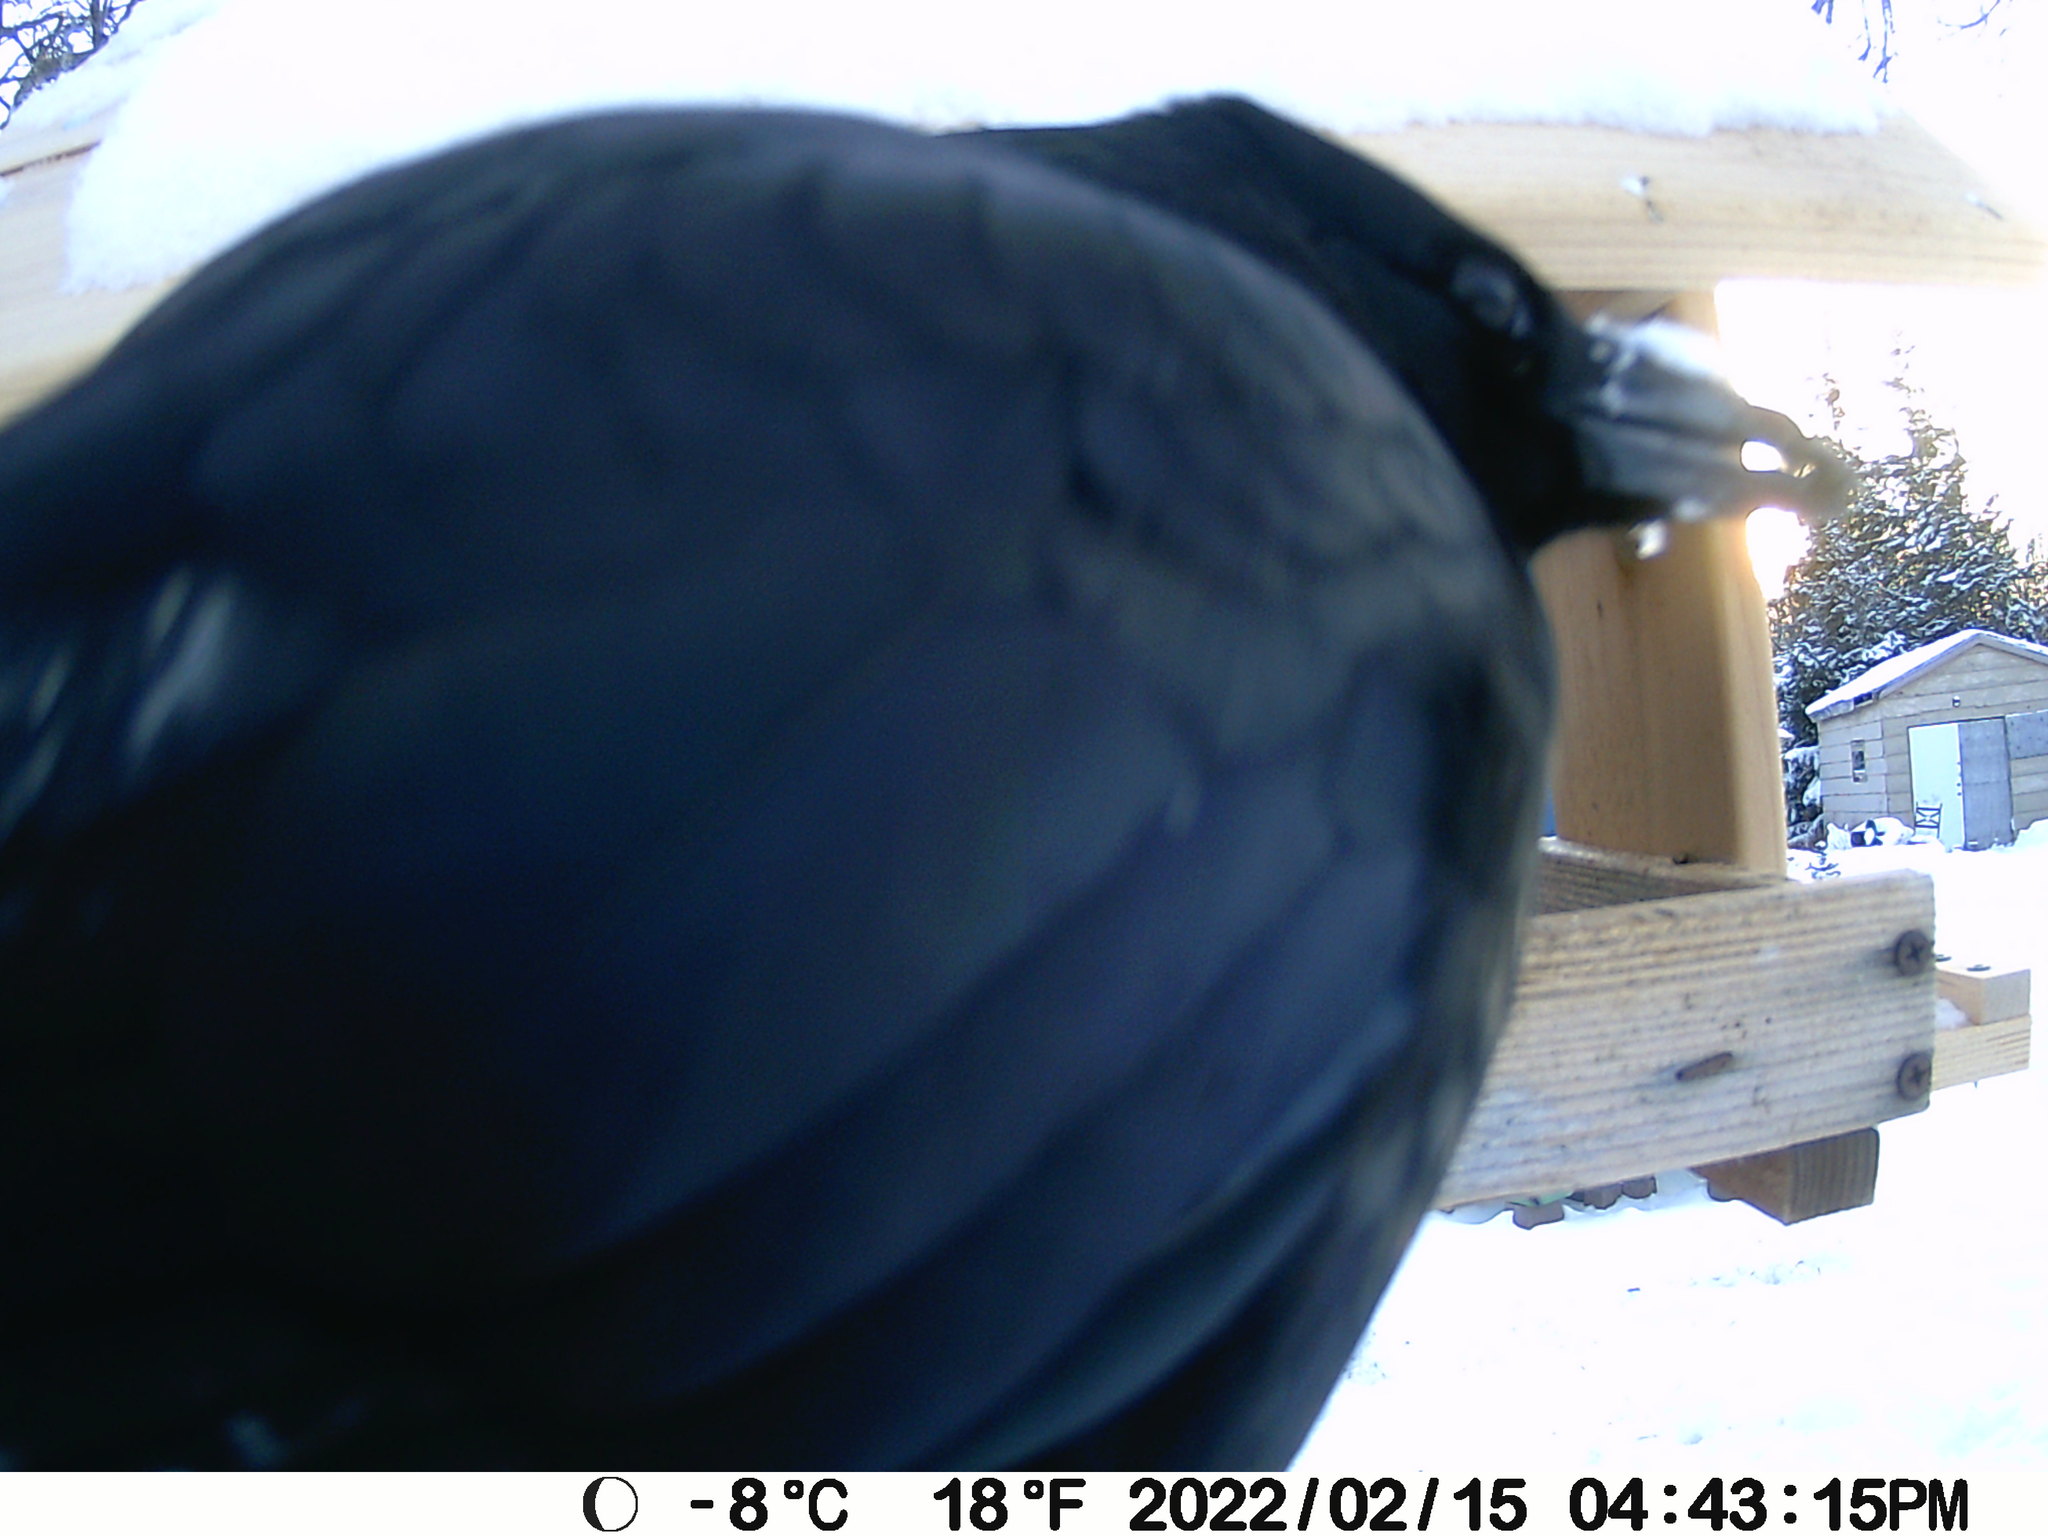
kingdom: Animalia
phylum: Chordata
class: Aves
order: Passeriformes
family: Corvidae
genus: Corvus
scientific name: Corvus brachyrhynchos
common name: American crow
